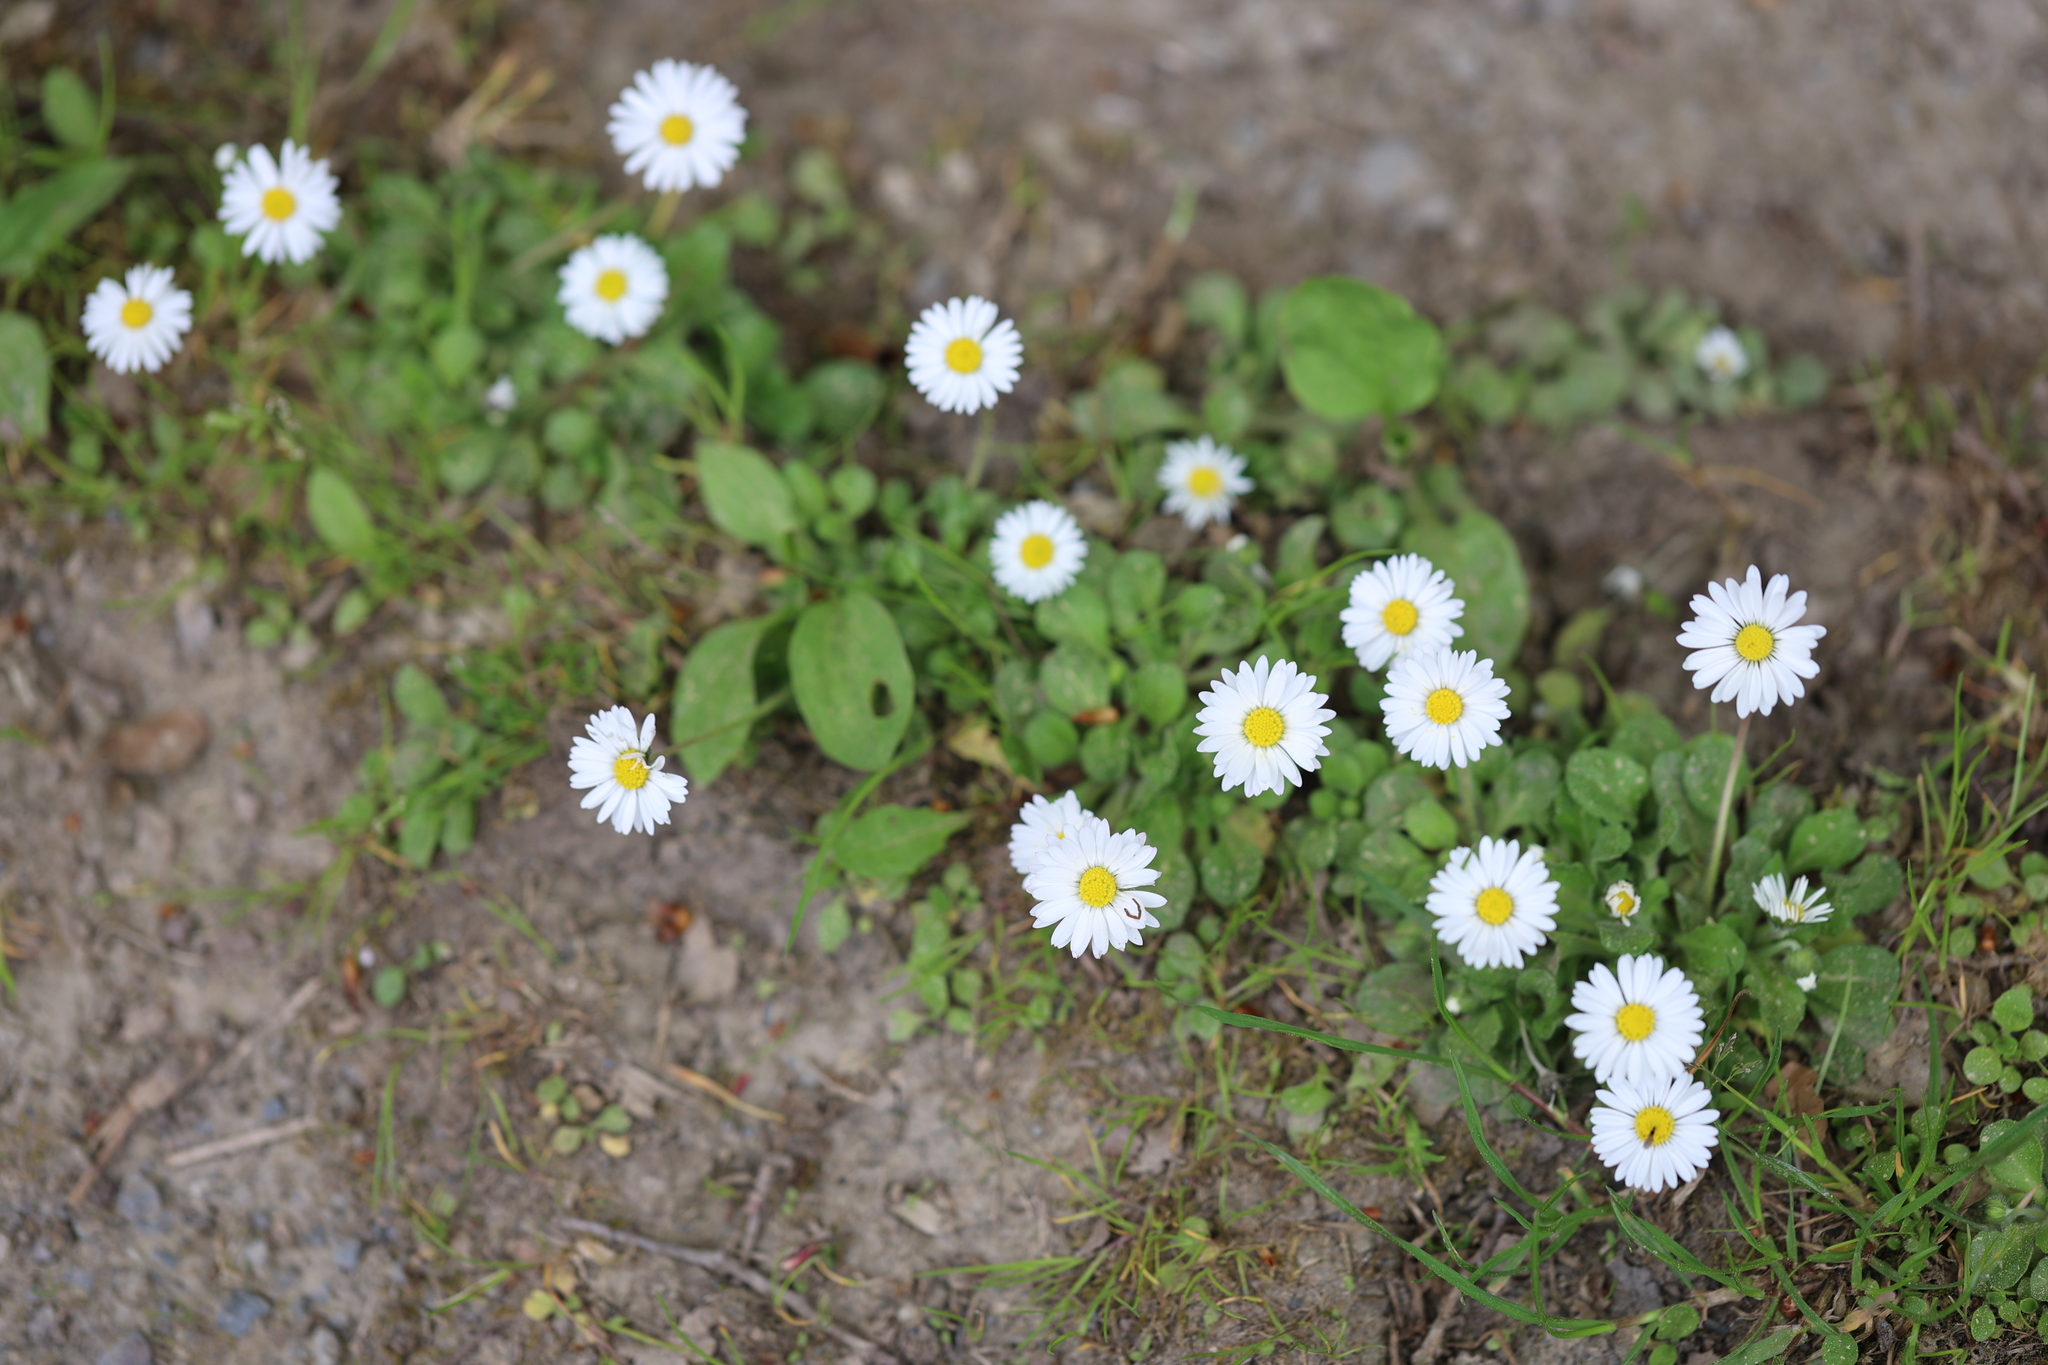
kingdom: Plantae
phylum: Tracheophyta
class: Magnoliopsida
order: Asterales
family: Asteraceae
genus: Bellis
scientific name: Bellis perennis
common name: Lawndaisy
